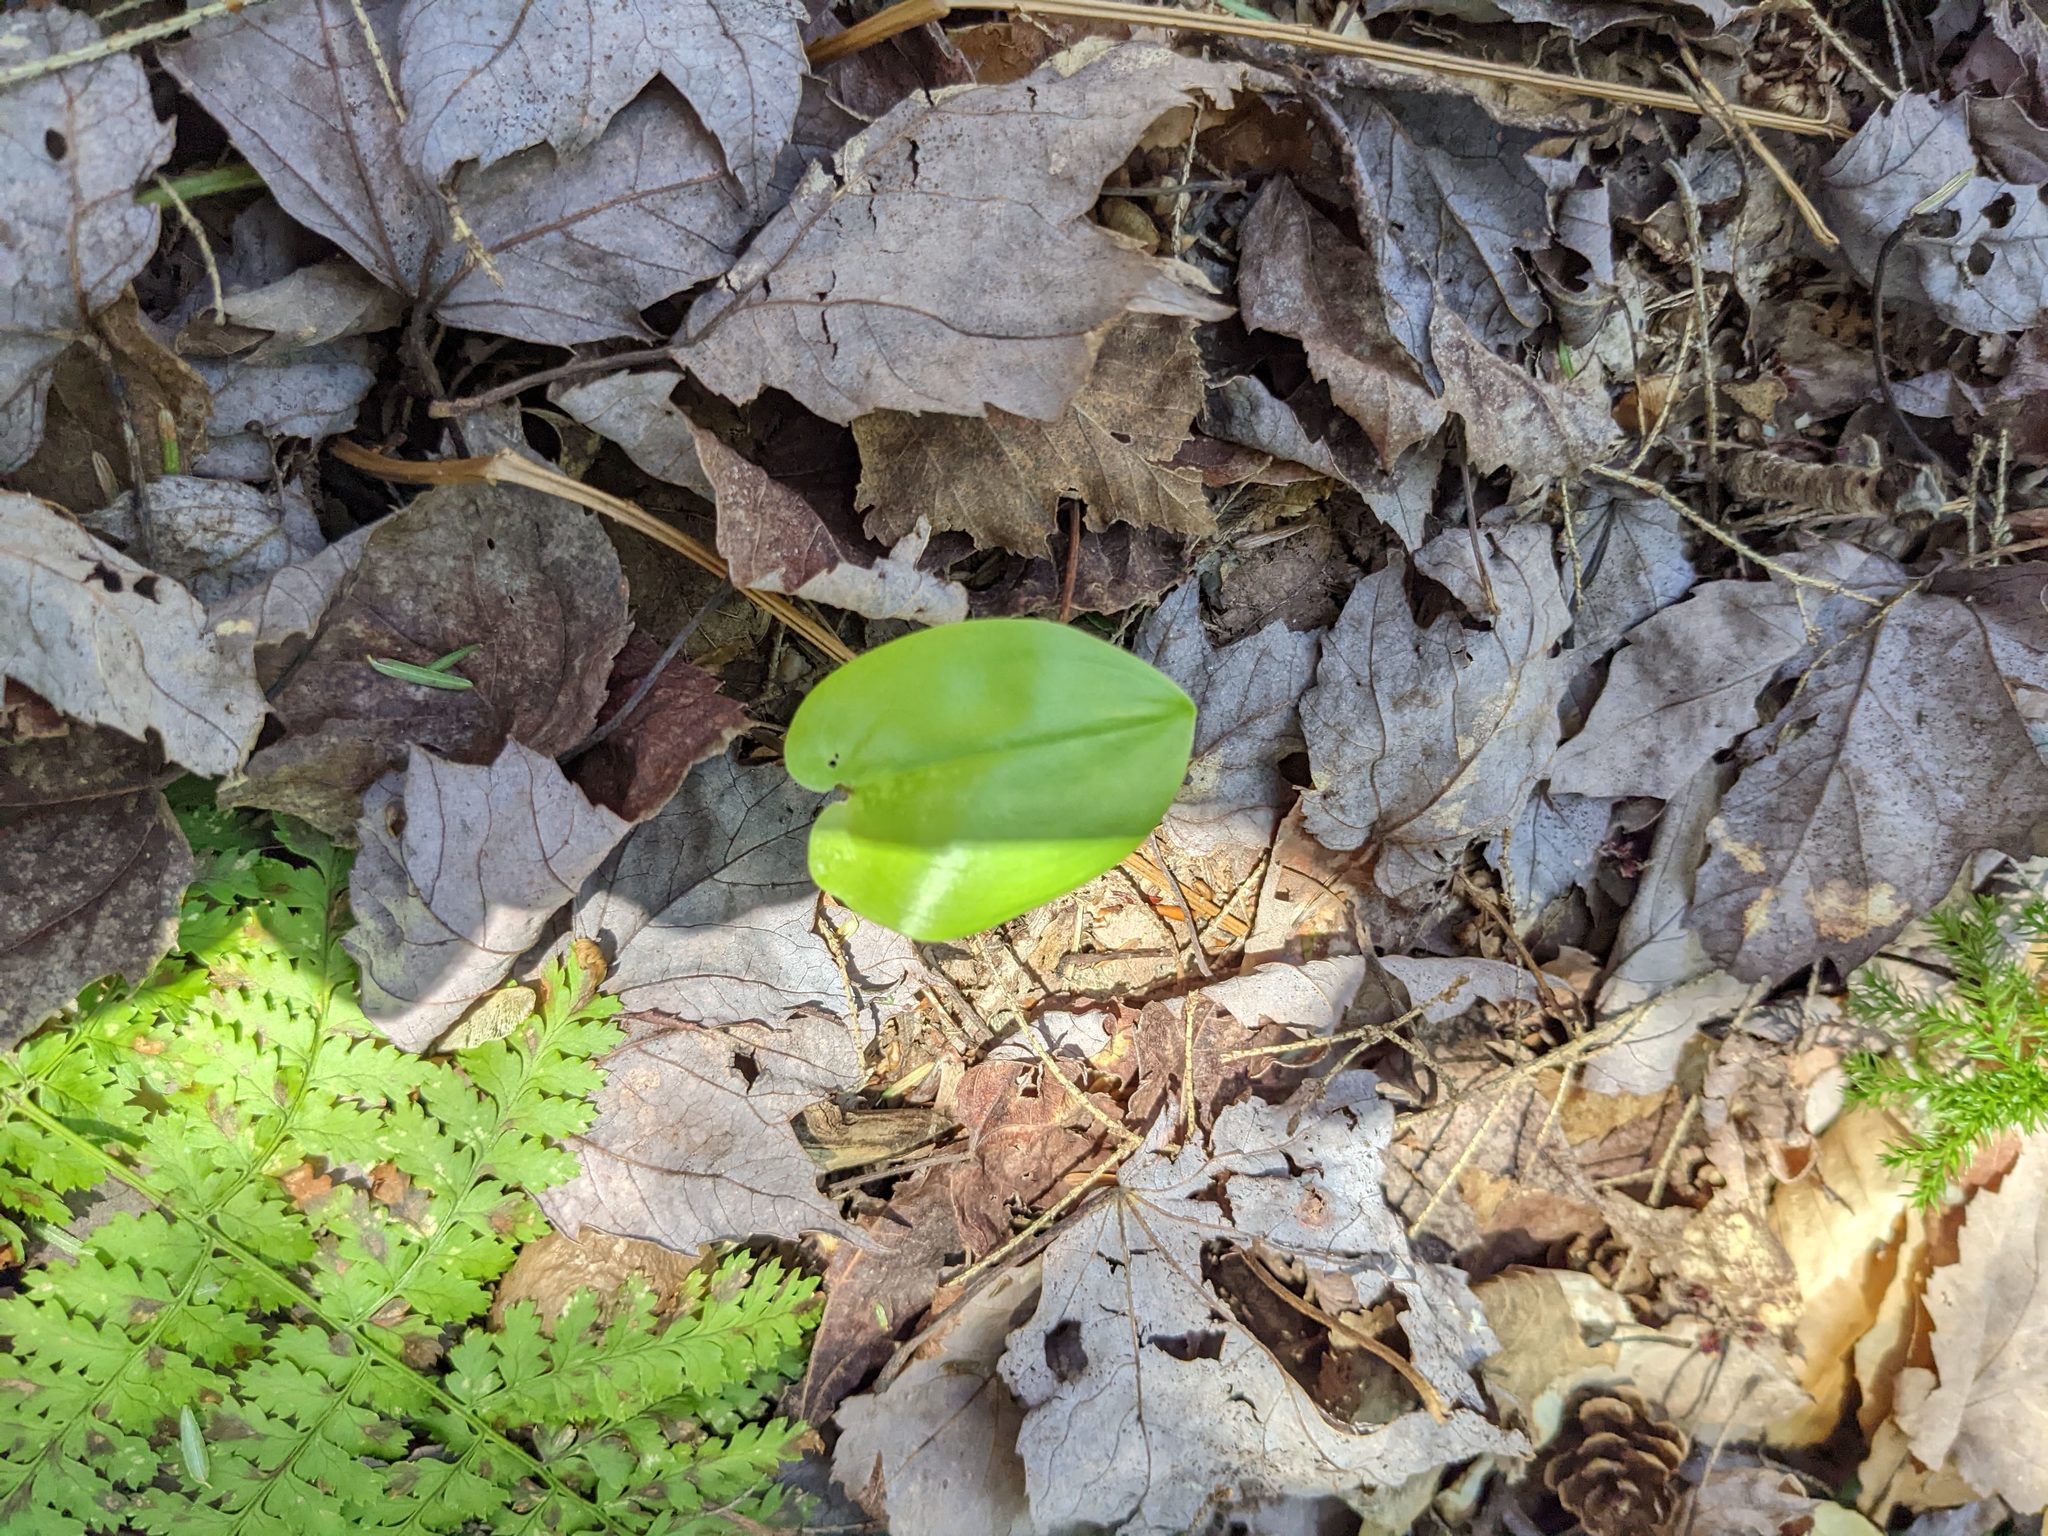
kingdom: Plantae
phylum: Tracheophyta
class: Liliopsida
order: Asparagales
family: Asparagaceae
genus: Maianthemum
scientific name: Maianthemum canadense
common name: False lily-of-the-valley
